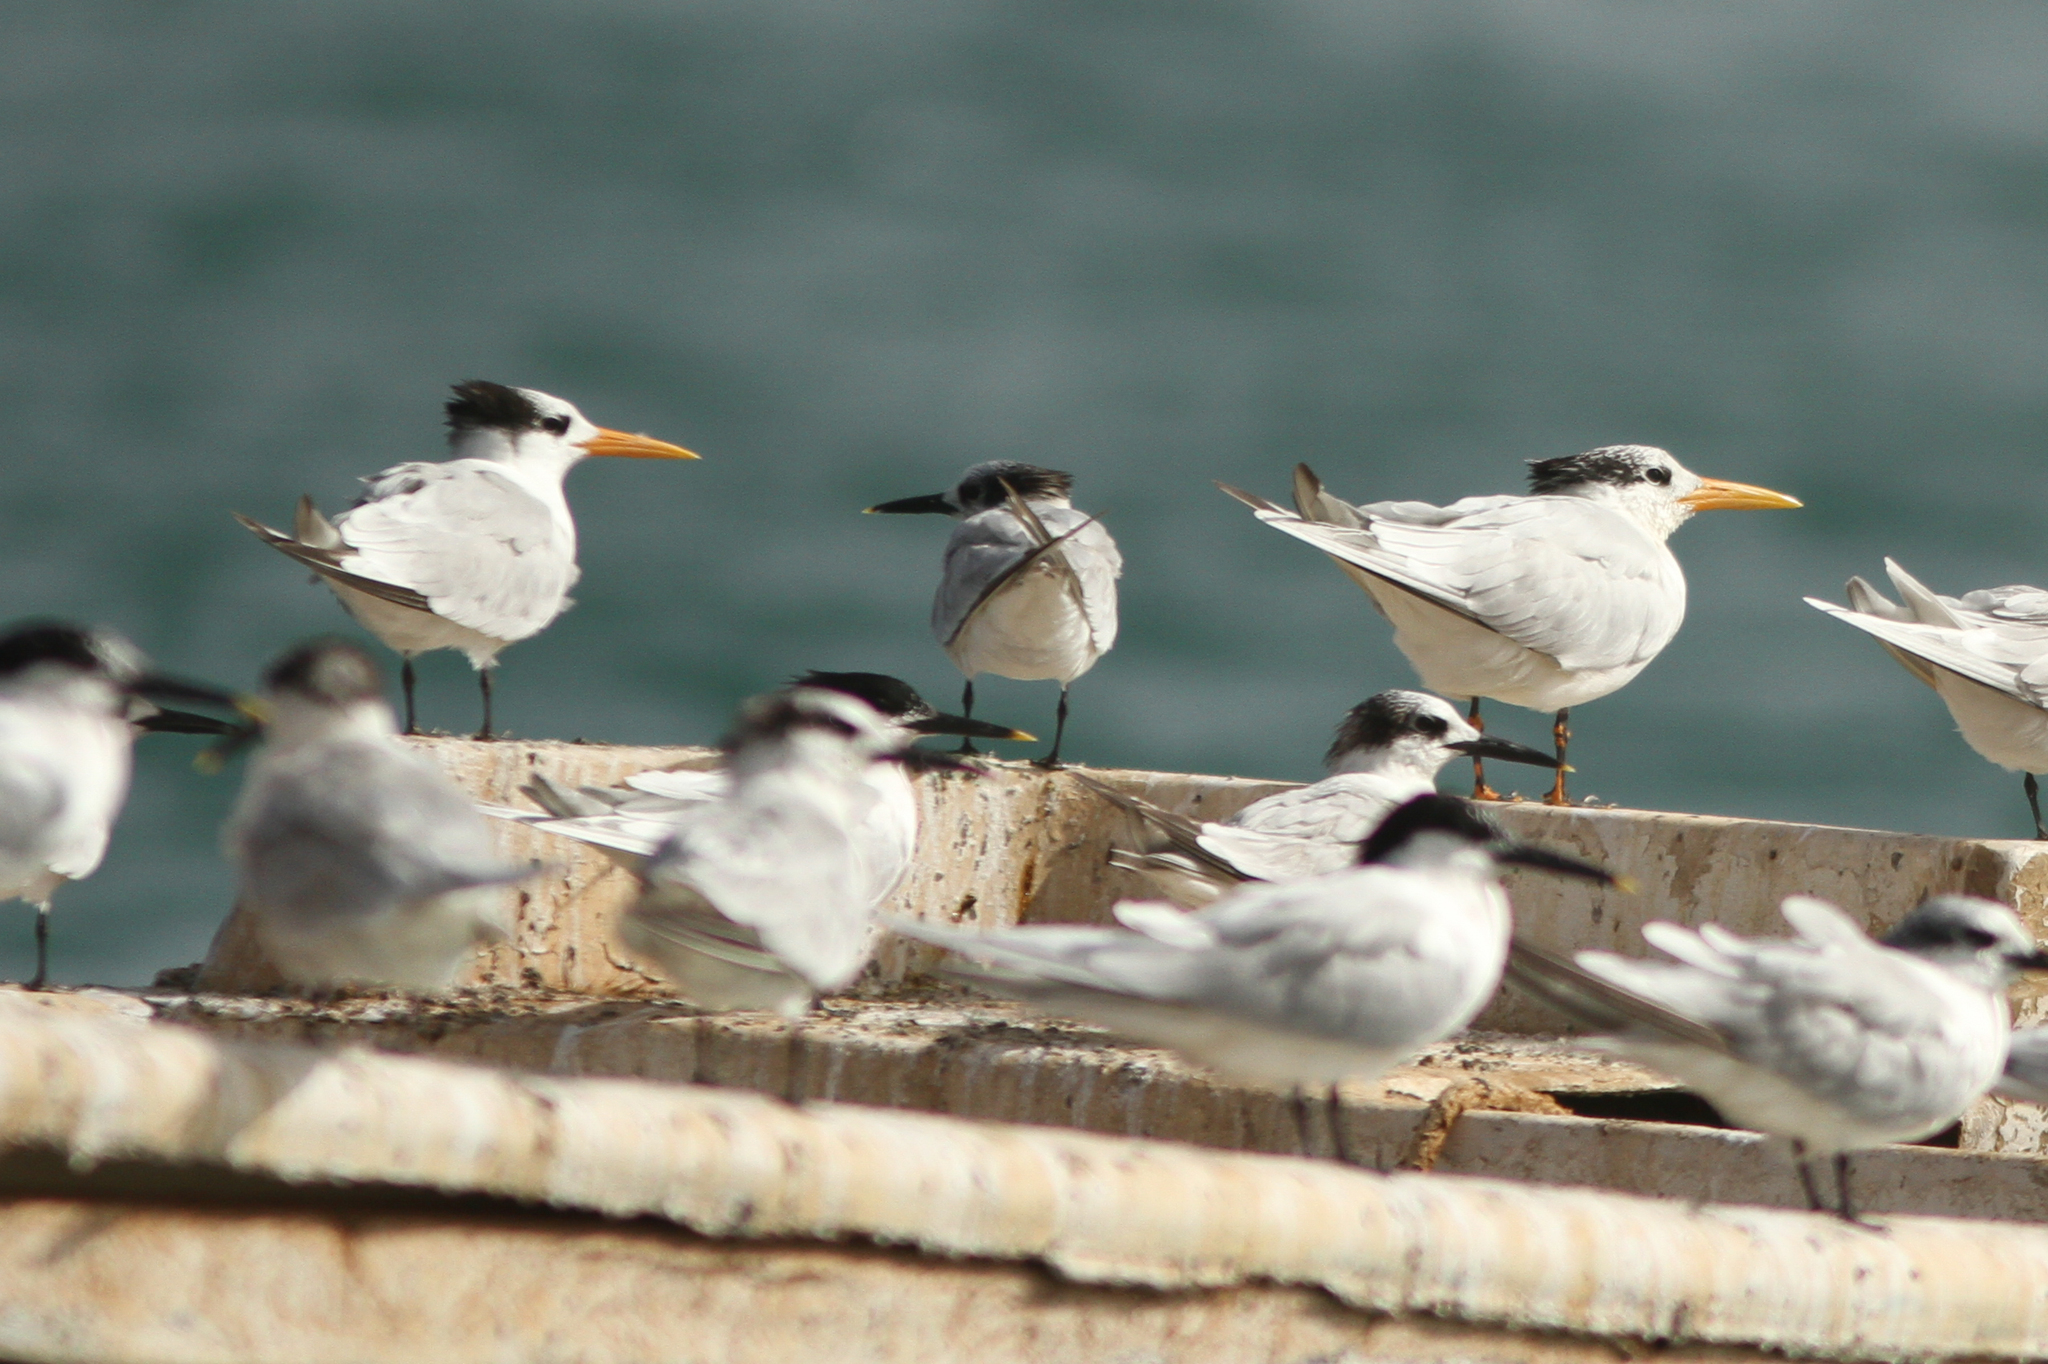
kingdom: Animalia
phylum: Chordata
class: Aves
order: Charadriiformes
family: Laridae
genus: Thalasseus
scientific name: Thalasseus albididorsalis
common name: West african crested tern
